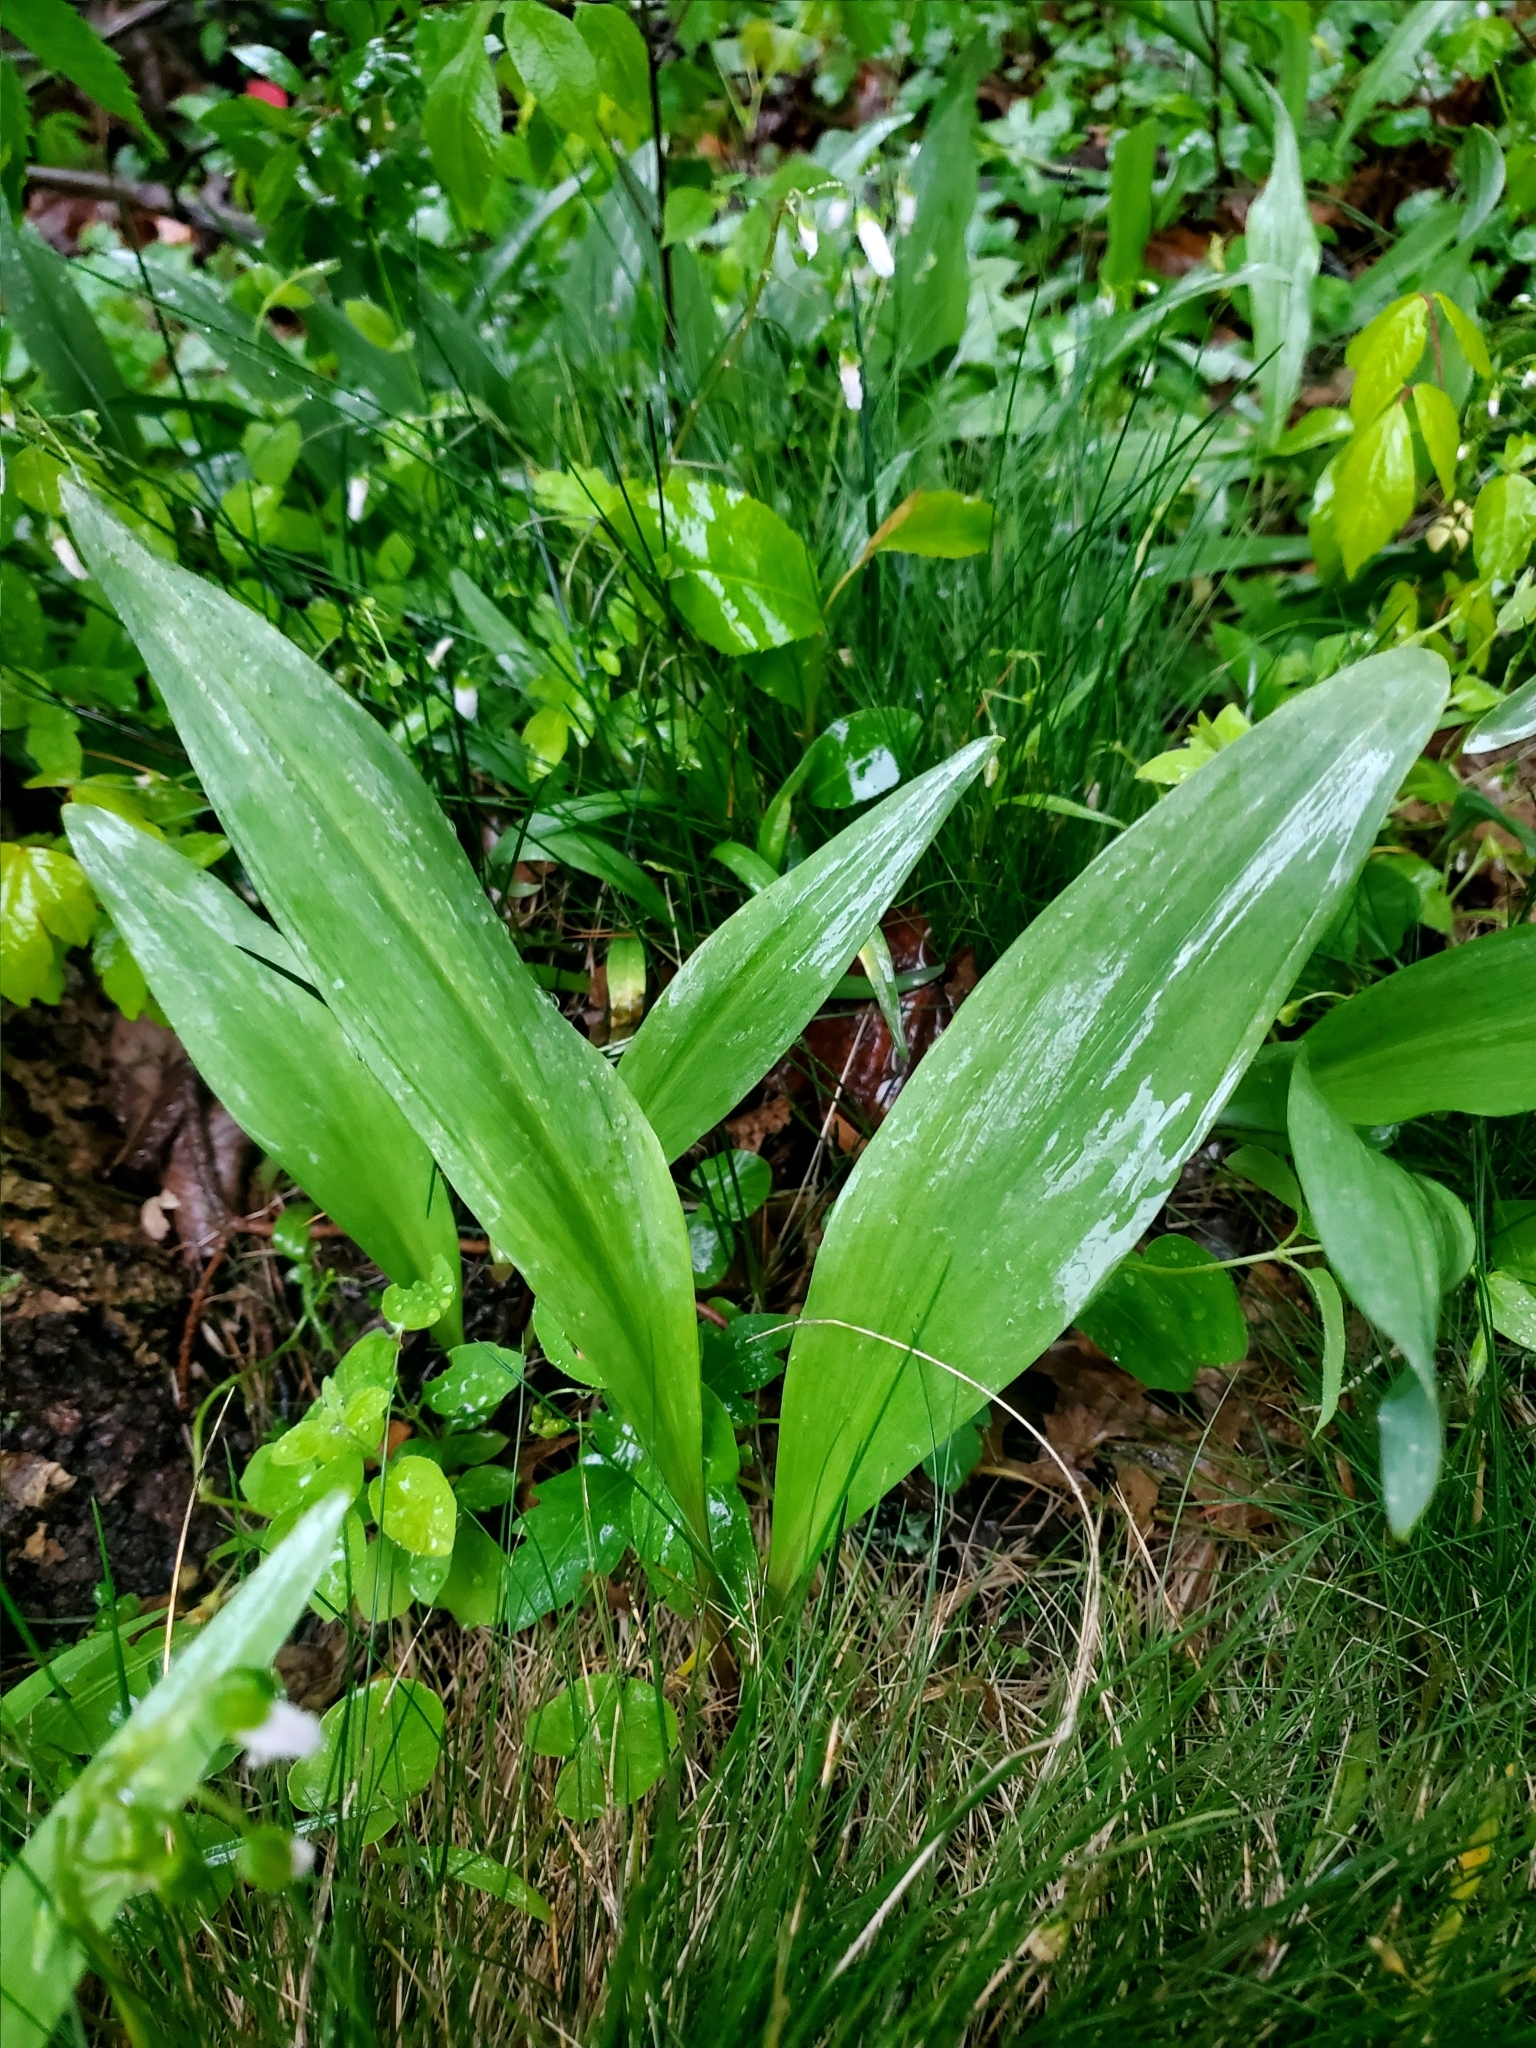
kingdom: Plantae
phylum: Tracheophyta
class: Liliopsida
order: Asparagales
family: Amaryllidaceae
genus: Allium
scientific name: Allium tricoccum
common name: Ramp
